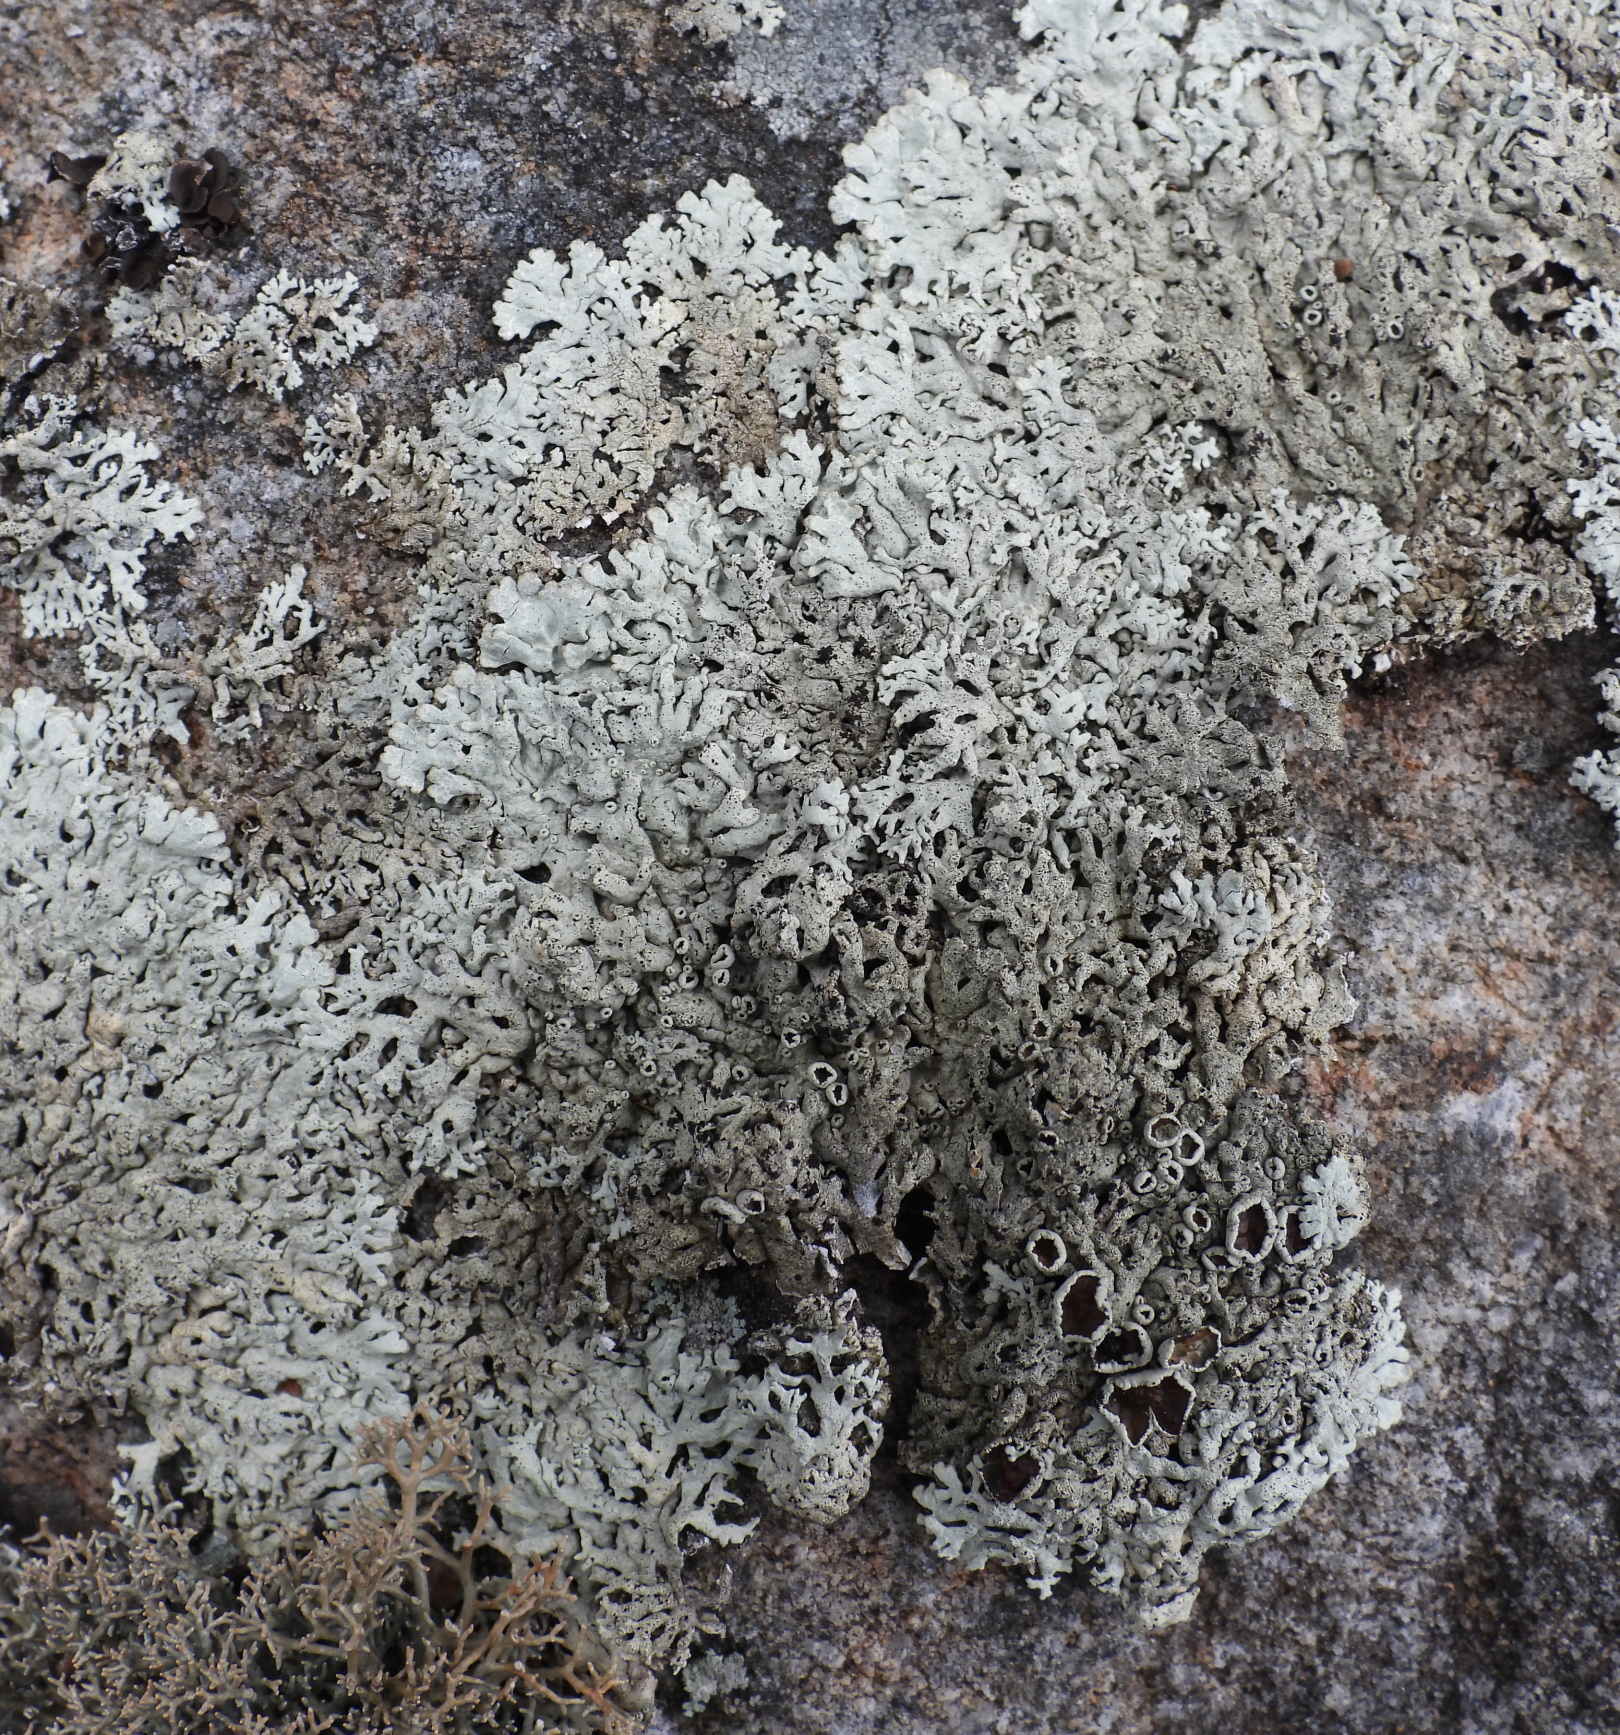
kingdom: Fungi
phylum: Ascomycota
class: Lecanoromycetes
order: Lecanorales
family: Parmeliaceae
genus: Arctoparmelia
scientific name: Arctoparmelia centrifuga
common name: Concentric ring lichen
